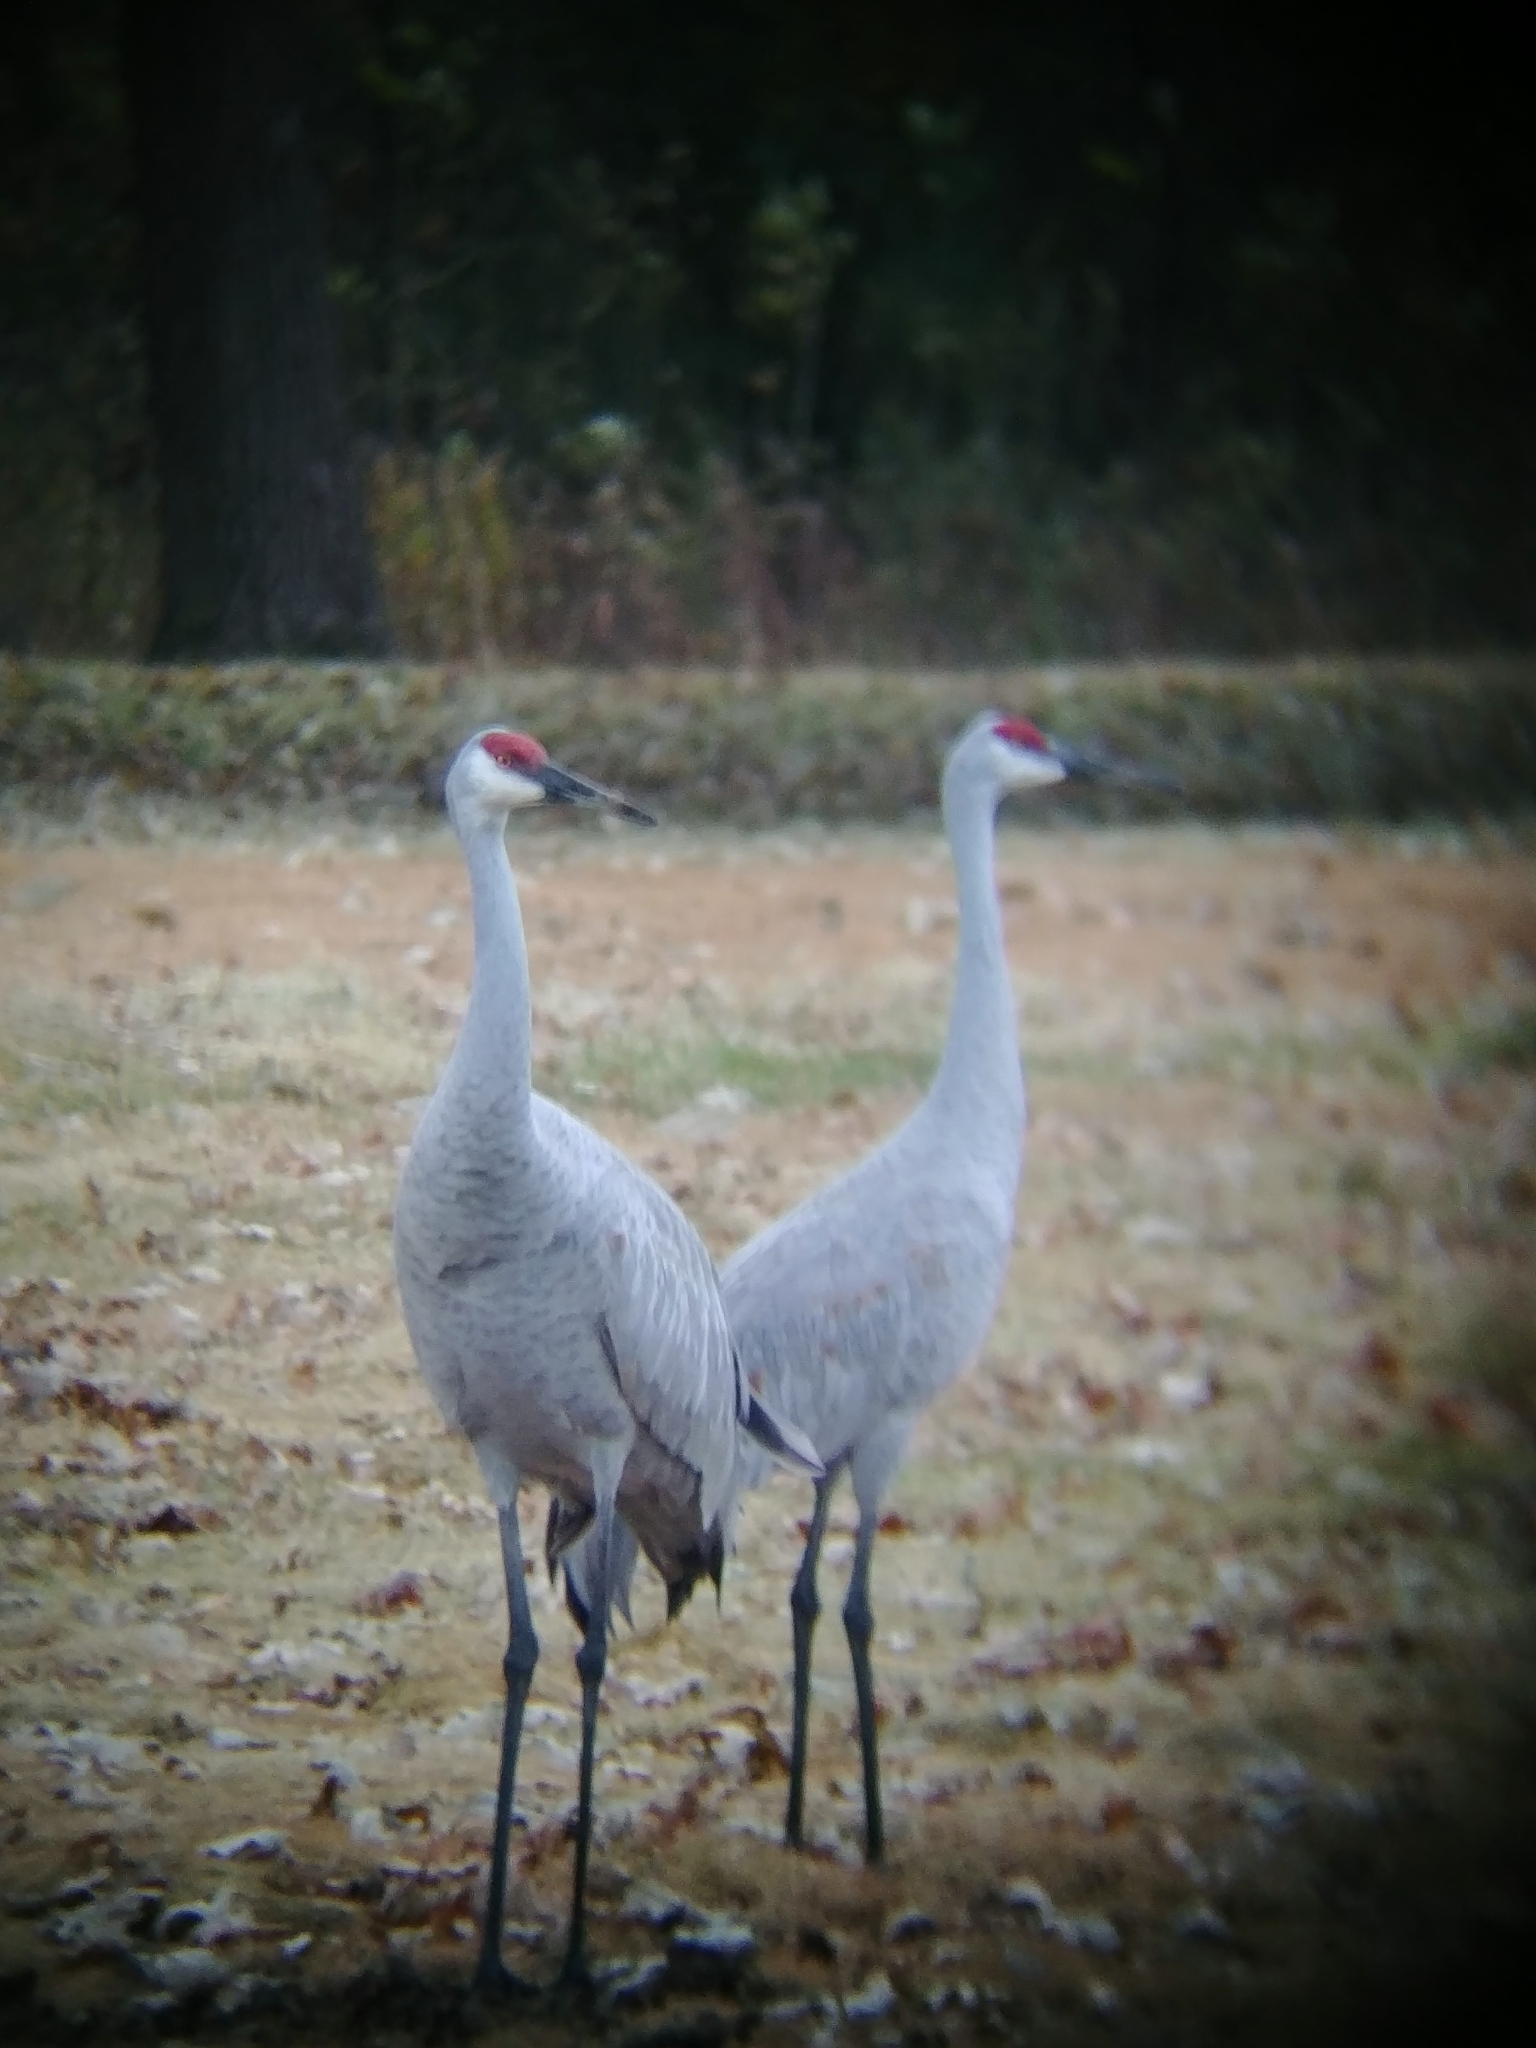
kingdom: Animalia
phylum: Chordata
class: Aves
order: Gruiformes
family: Gruidae
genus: Grus
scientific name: Grus canadensis
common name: Sandhill crane
